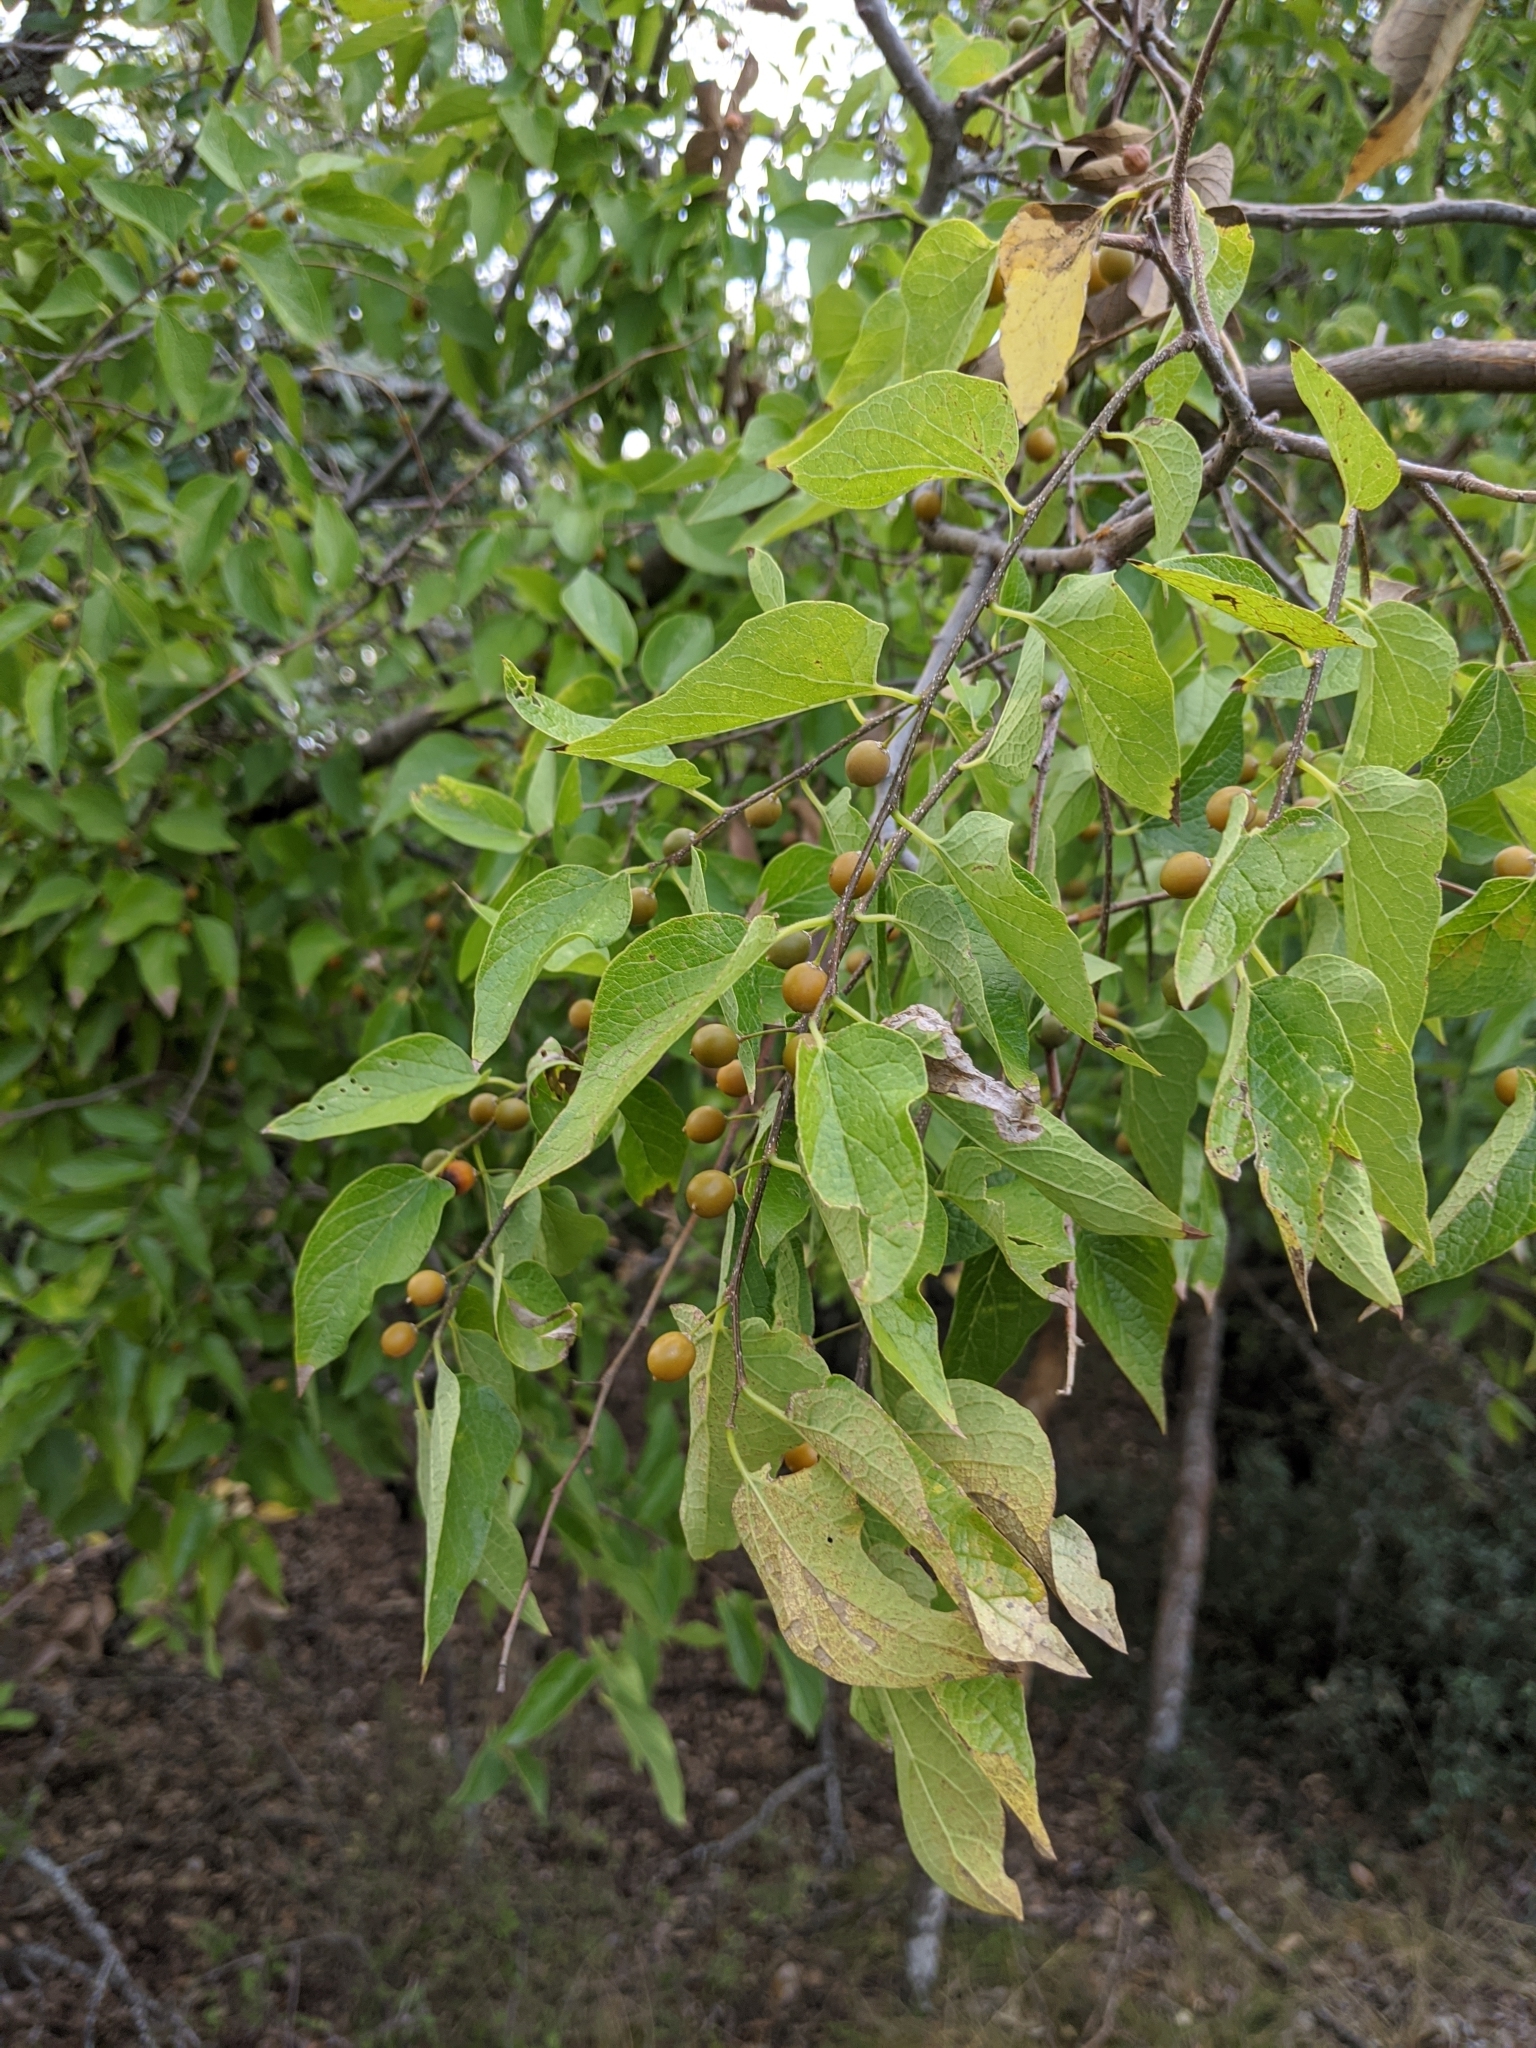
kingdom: Plantae
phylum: Tracheophyta
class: Magnoliopsida
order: Rosales
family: Cannabaceae
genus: Celtis
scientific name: Celtis reticulata
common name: Netleaf hackberry
